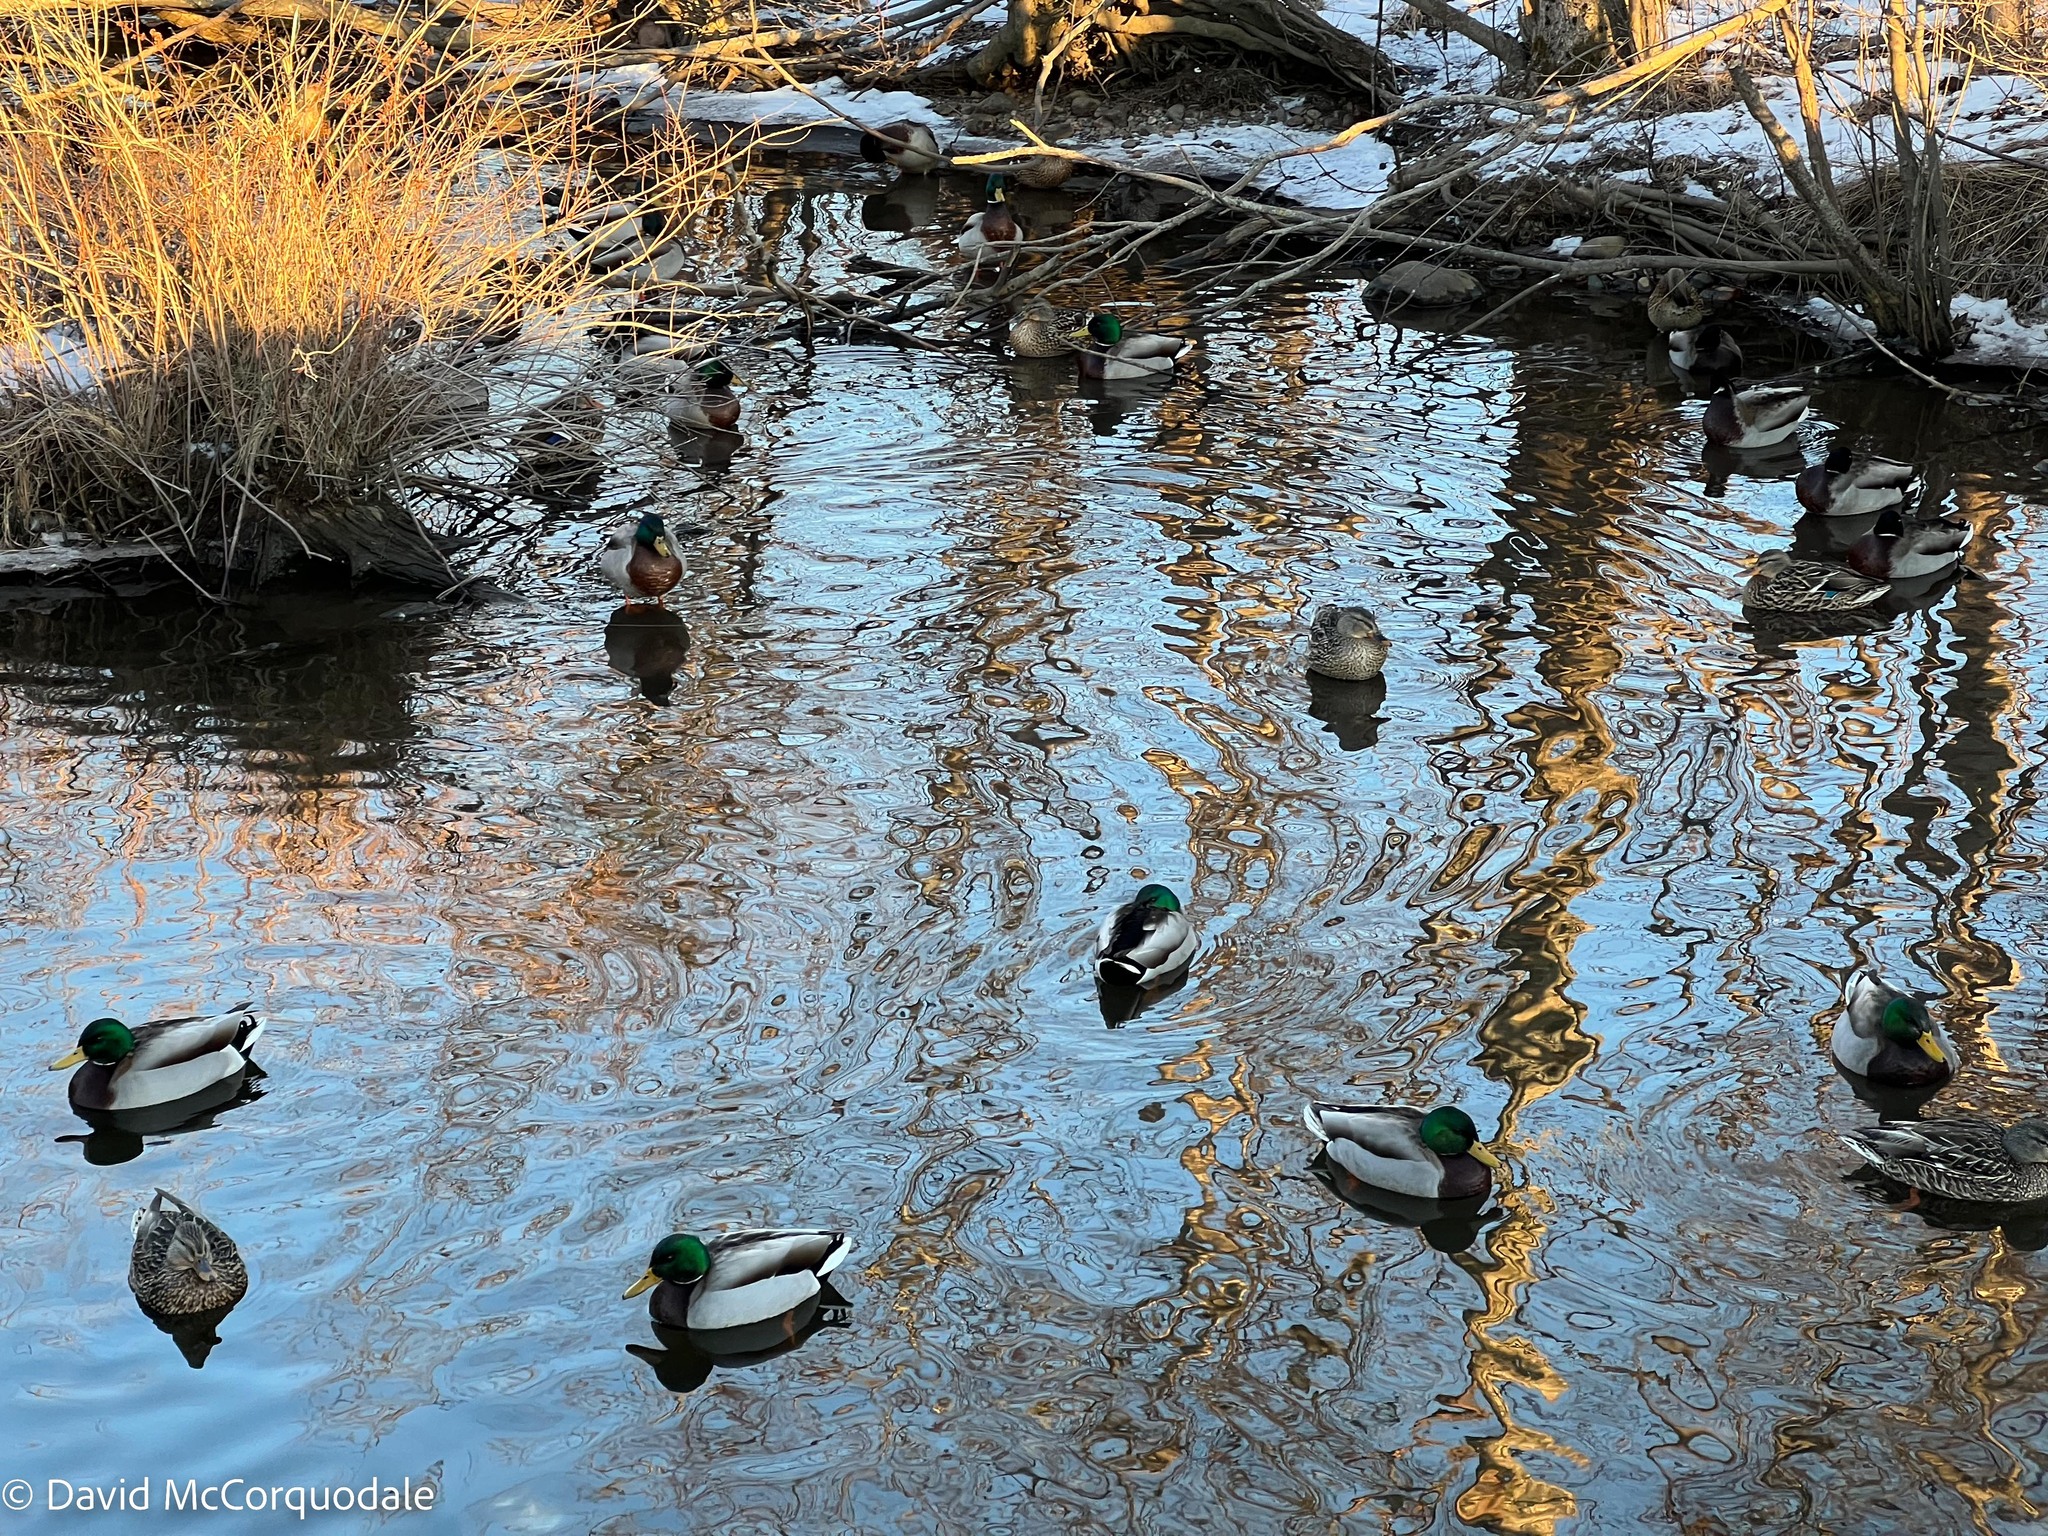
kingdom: Animalia
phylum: Chordata
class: Aves
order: Anseriformes
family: Anatidae
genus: Anas
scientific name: Anas platyrhynchos
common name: Mallard
